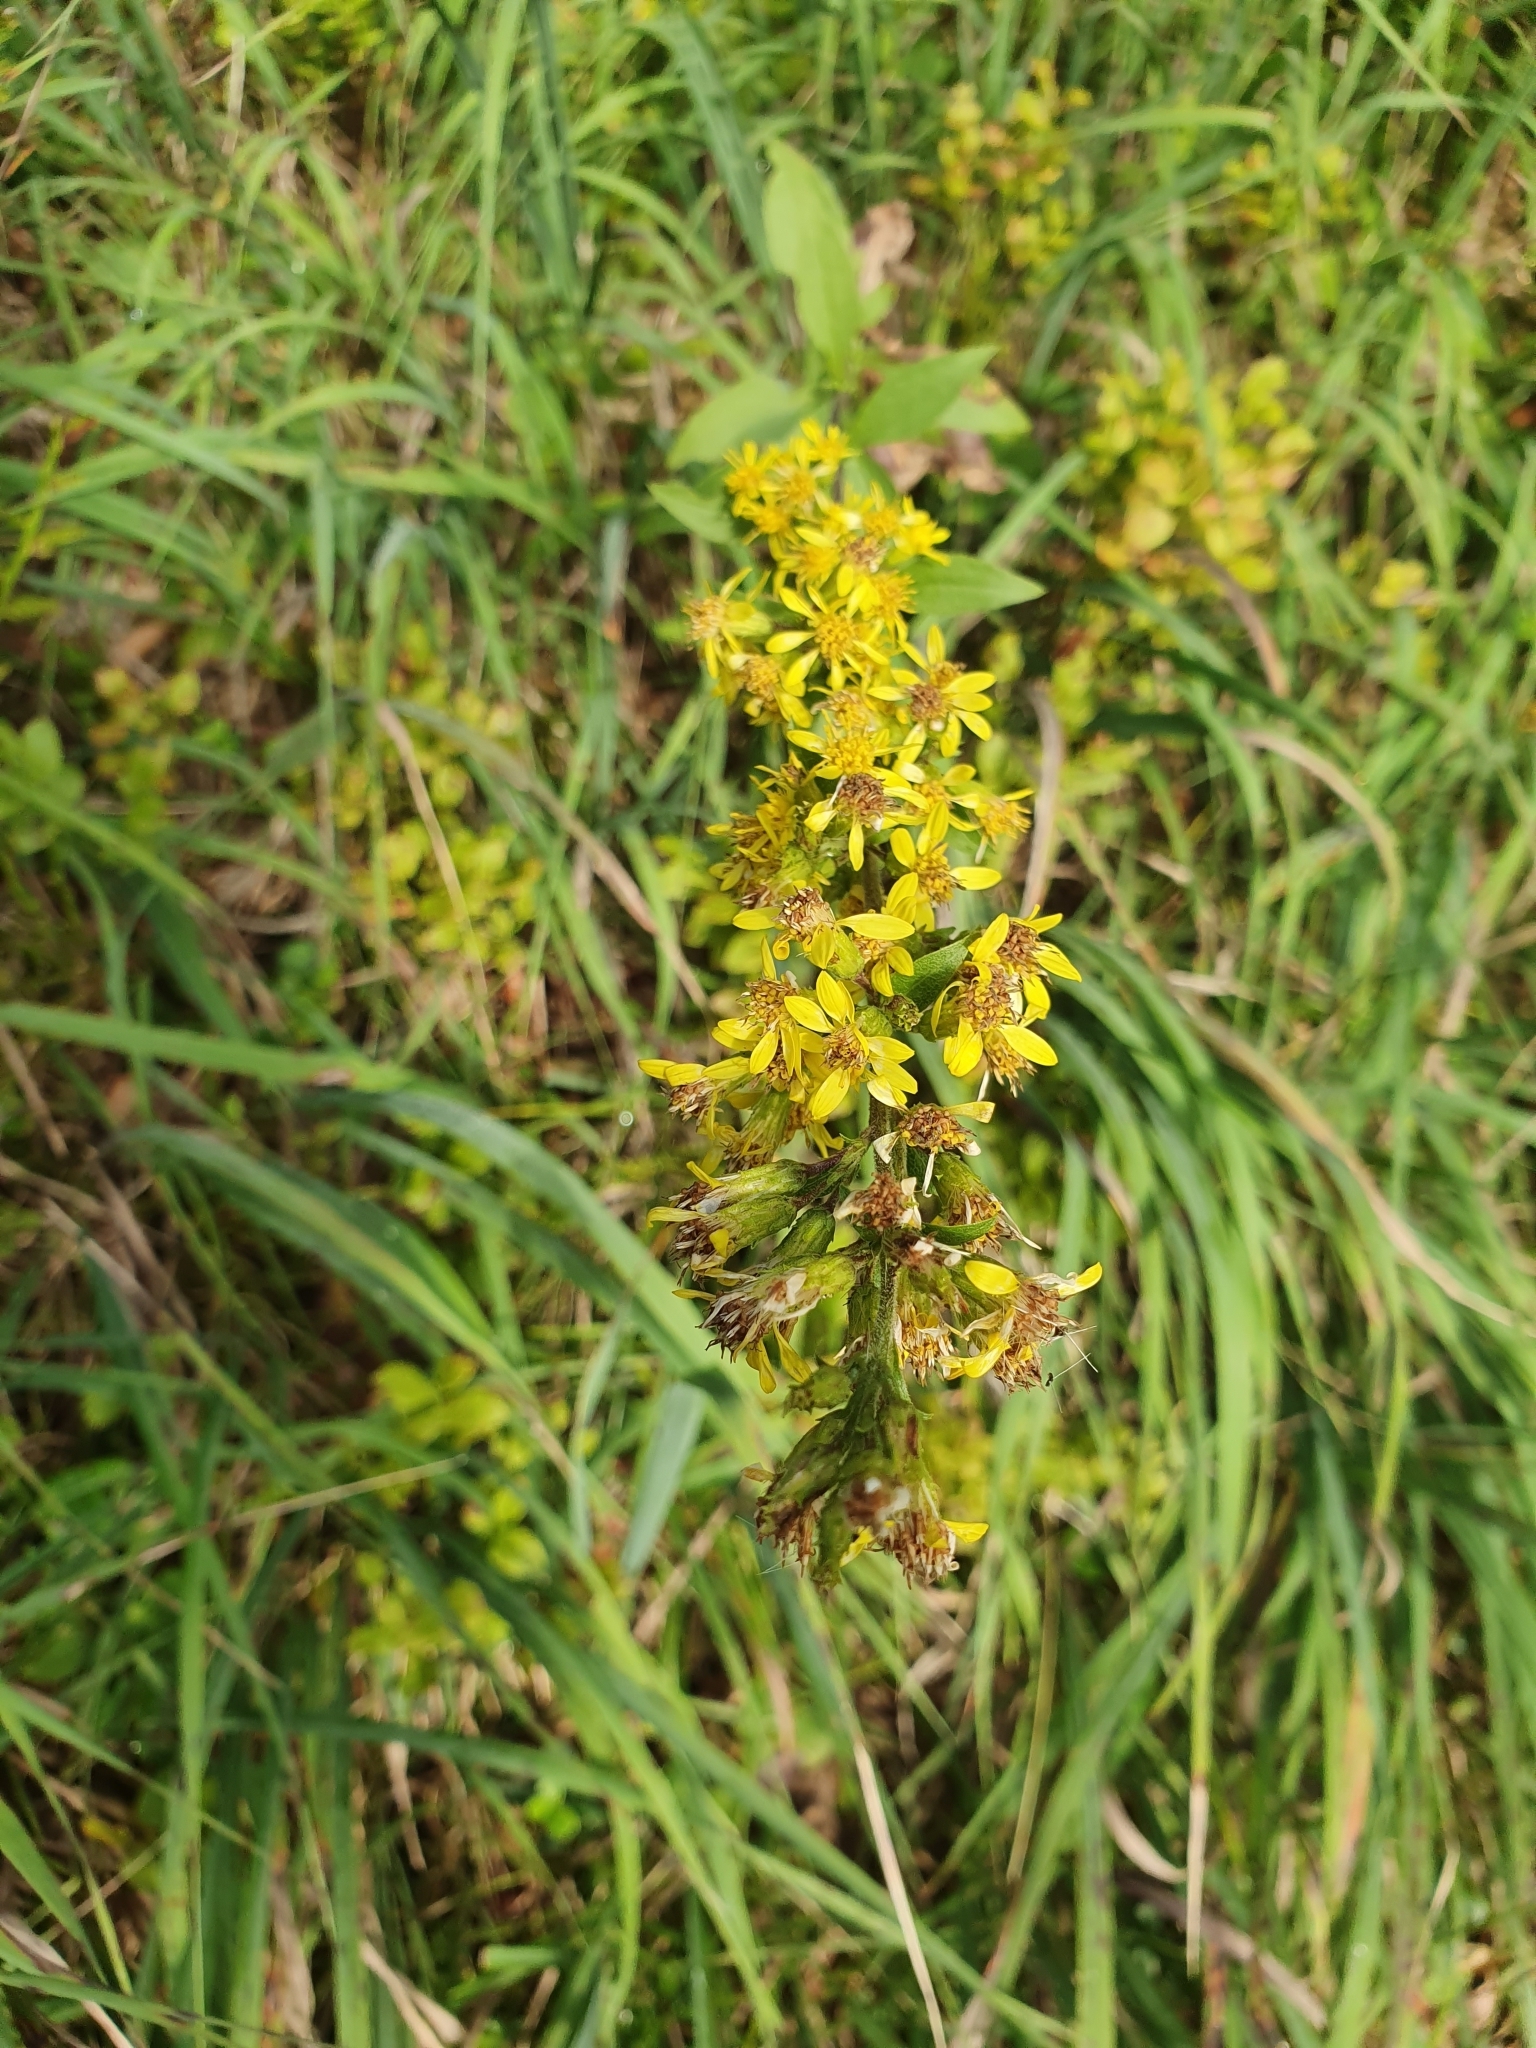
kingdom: Plantae
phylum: Tracheophyta
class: Magnoliopsida
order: Asterales
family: Asteraceae
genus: Solidago
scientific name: Solidago virgaurea
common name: Goldenrod
